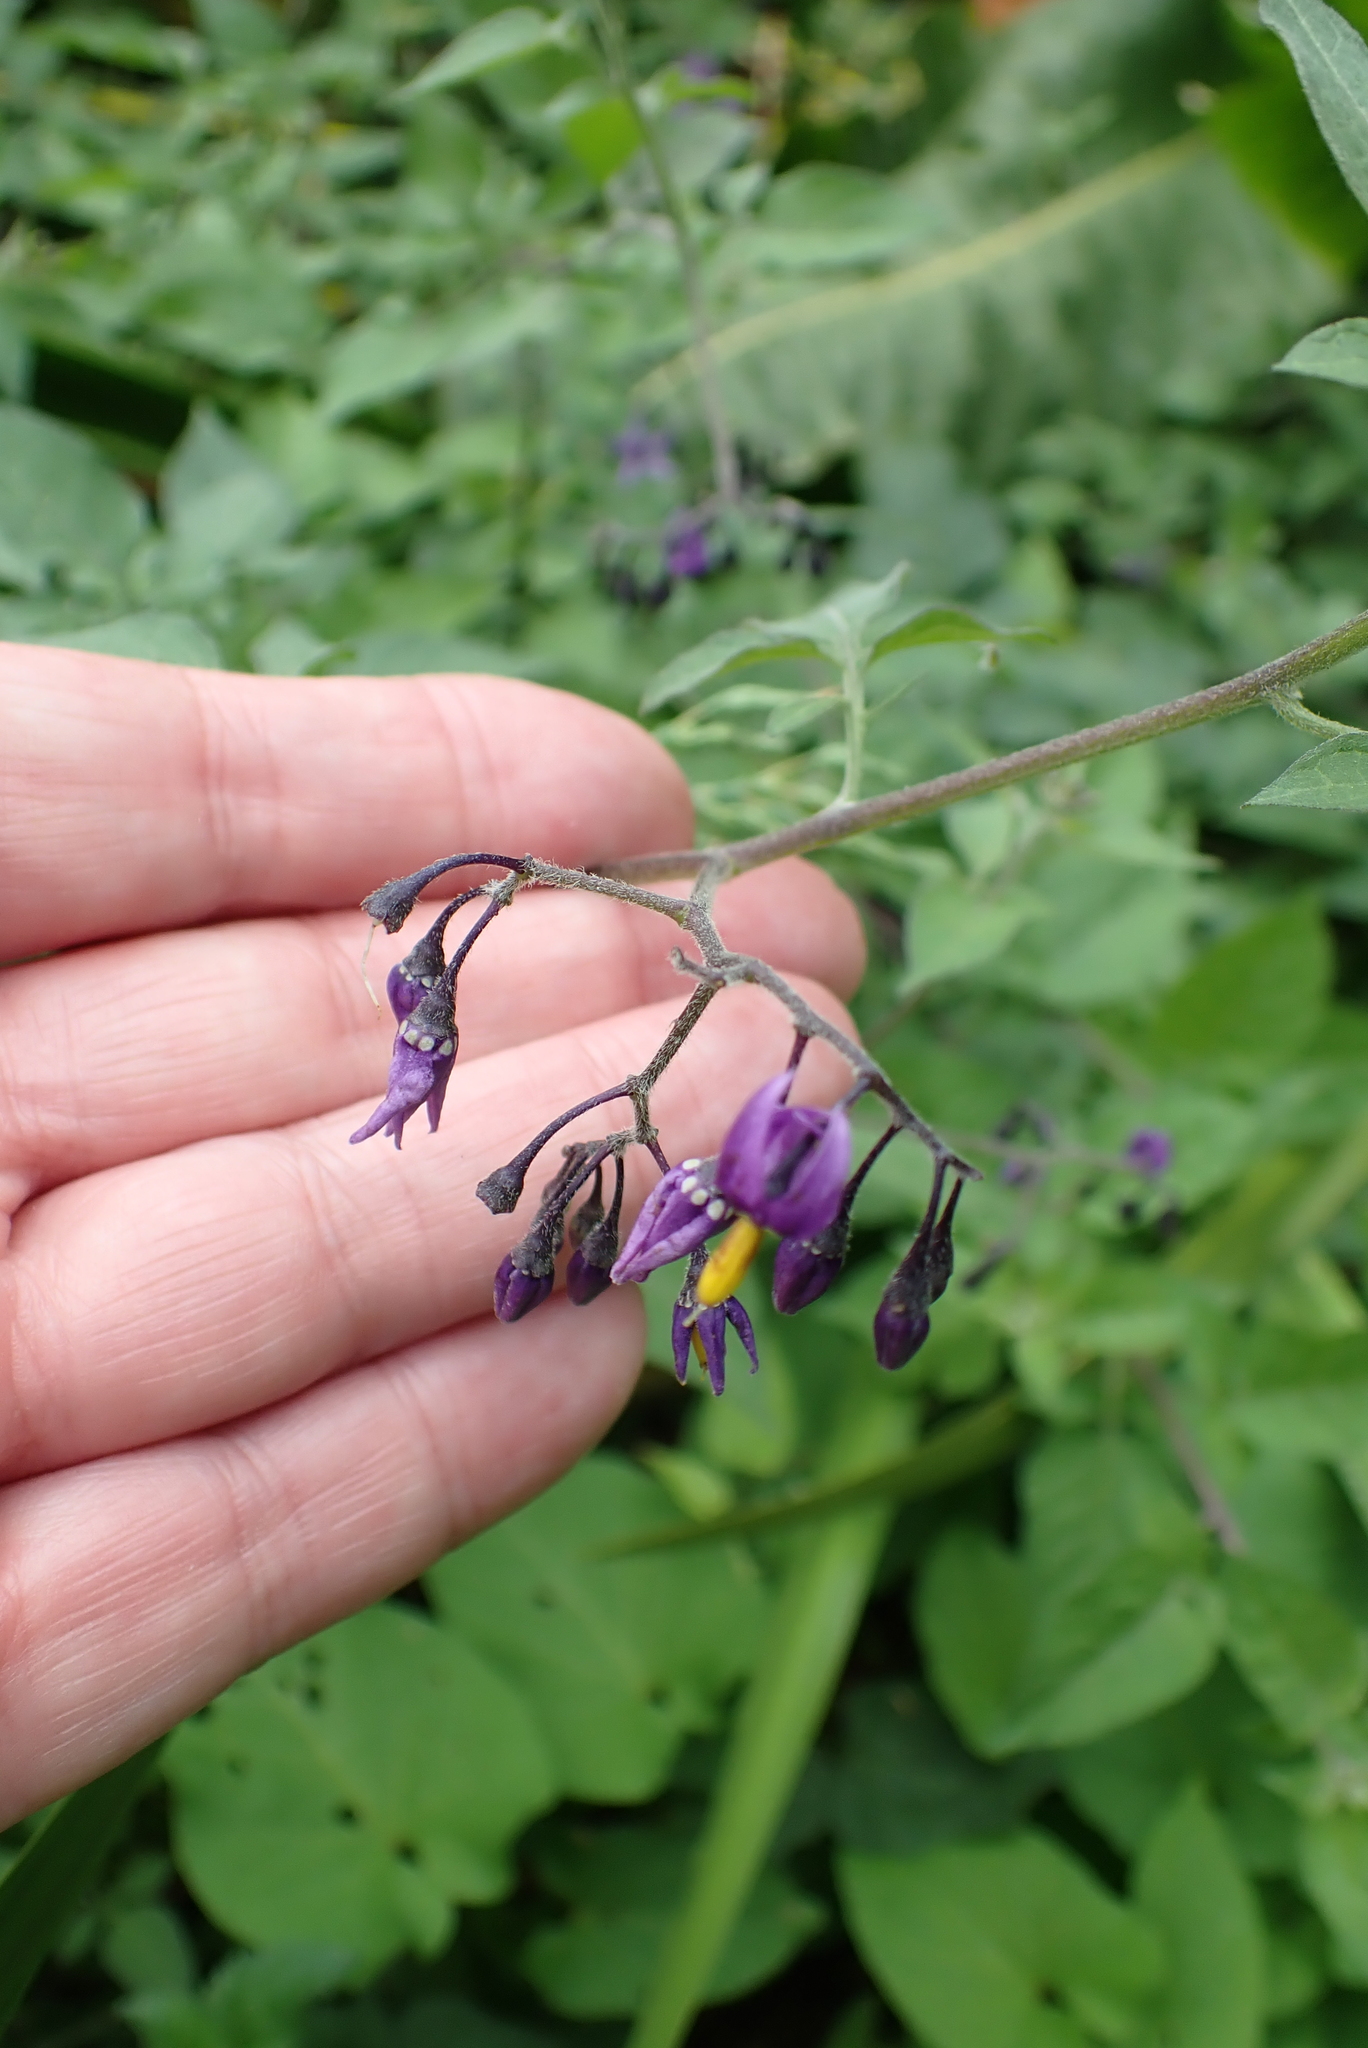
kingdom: Plantae
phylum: Tracheophyta
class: Magnoliopsida
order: Solanales
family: Solanaceae
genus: Solanum
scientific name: Solanum dulcamara
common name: Climbing nightshade
